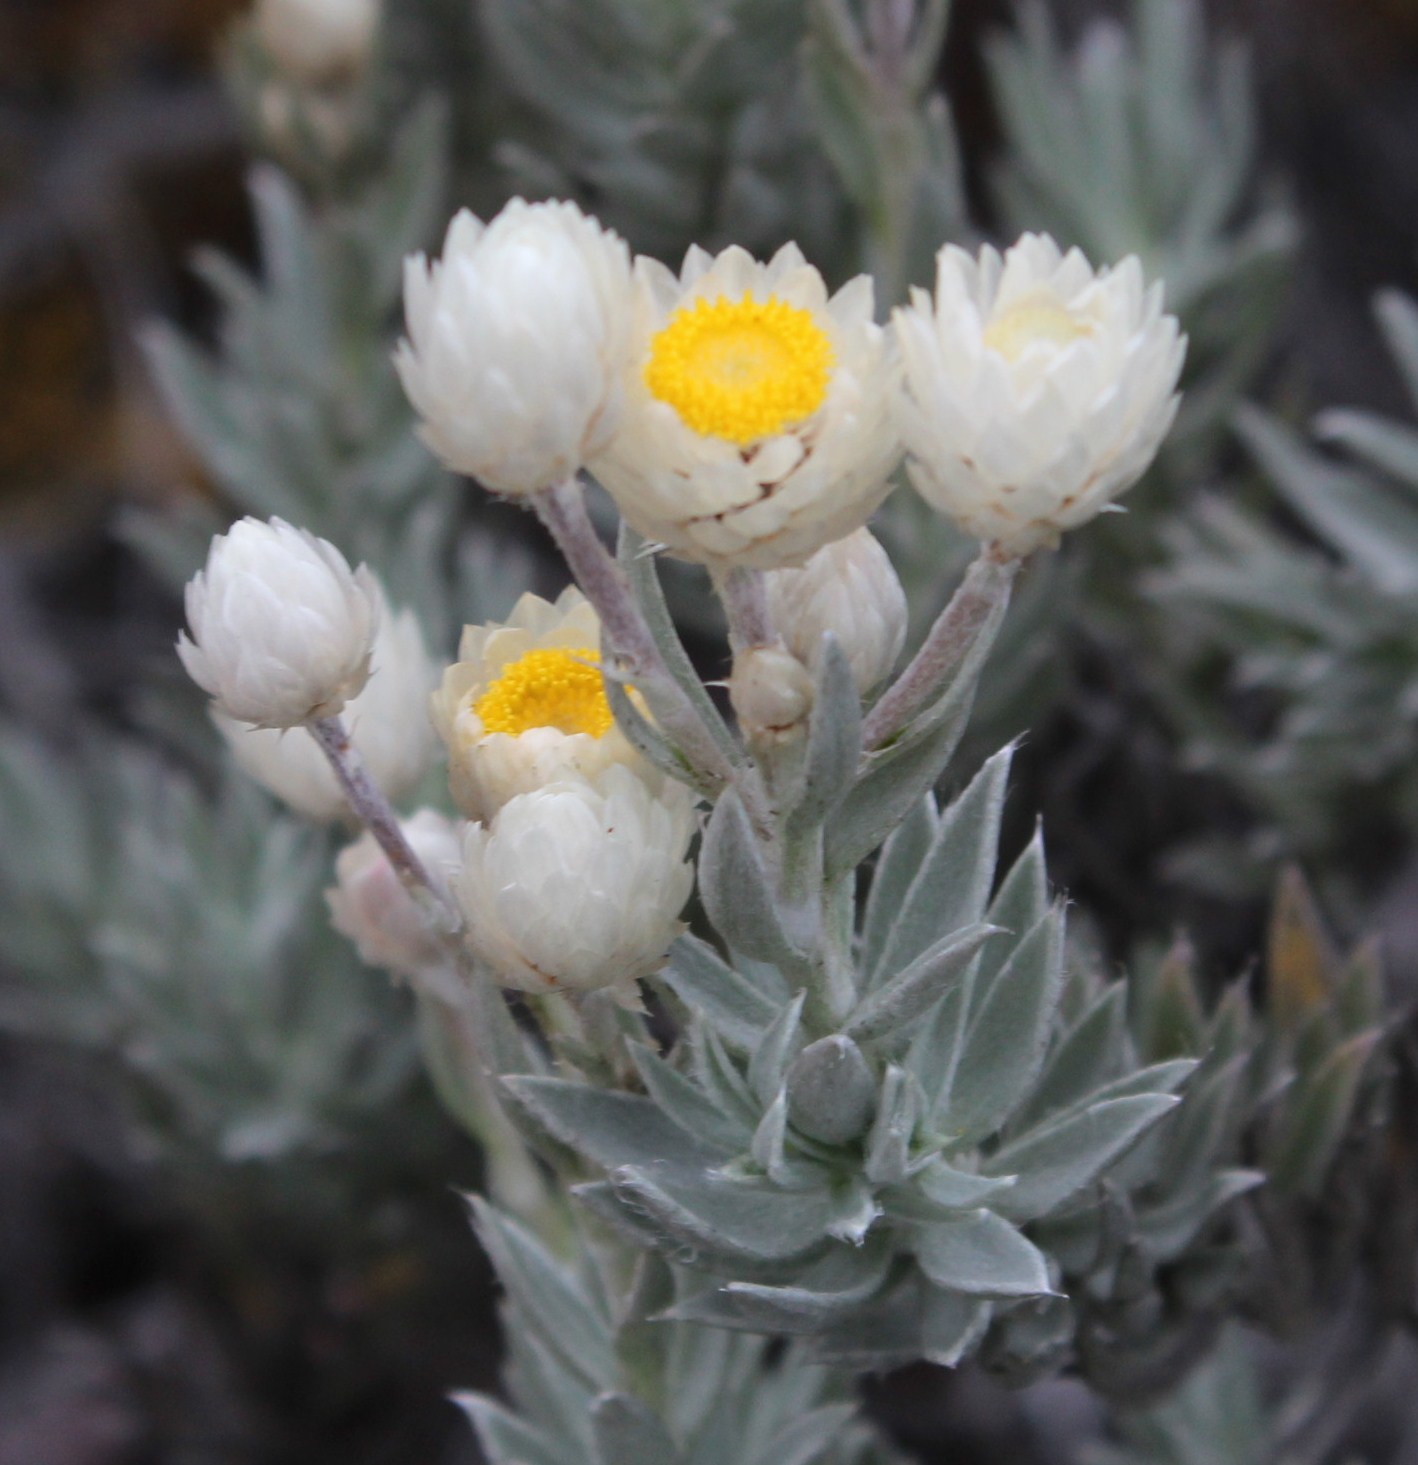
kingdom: Plantae
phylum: Tracheophyta
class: Magnoliopsida
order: Asterales
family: Asteraceae
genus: Achyranthemum
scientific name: Achyranthemum paniculatum
